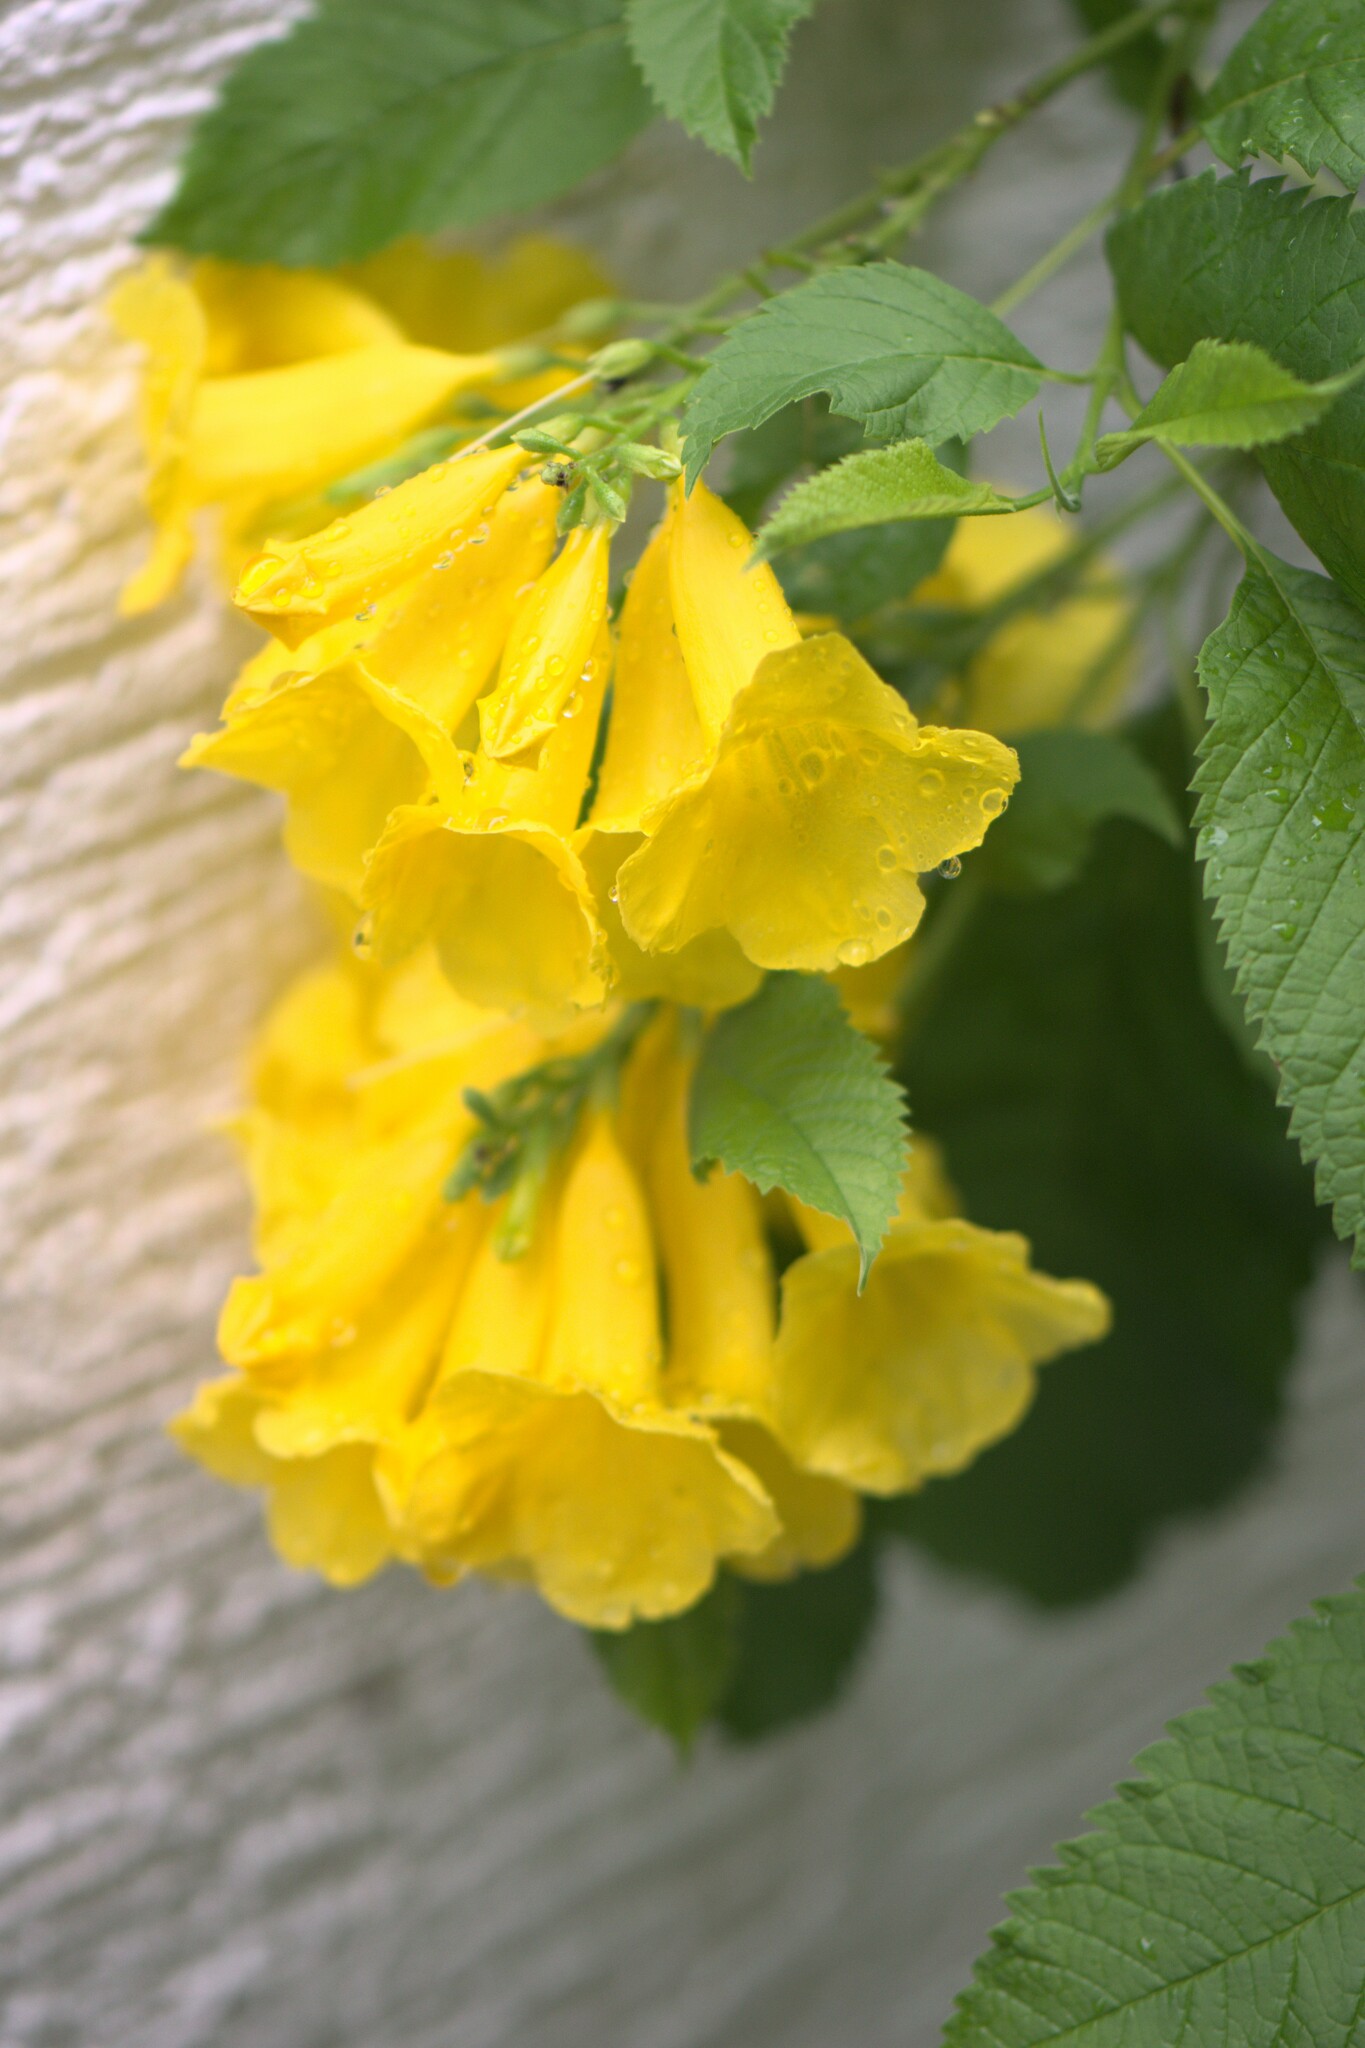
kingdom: Plantae
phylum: Tracheophyta
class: Magnoliopsida
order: Lamiales
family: Bignoniaceae
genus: Tecoma
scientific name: Tecoma stans
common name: Yellow trumpetbush
